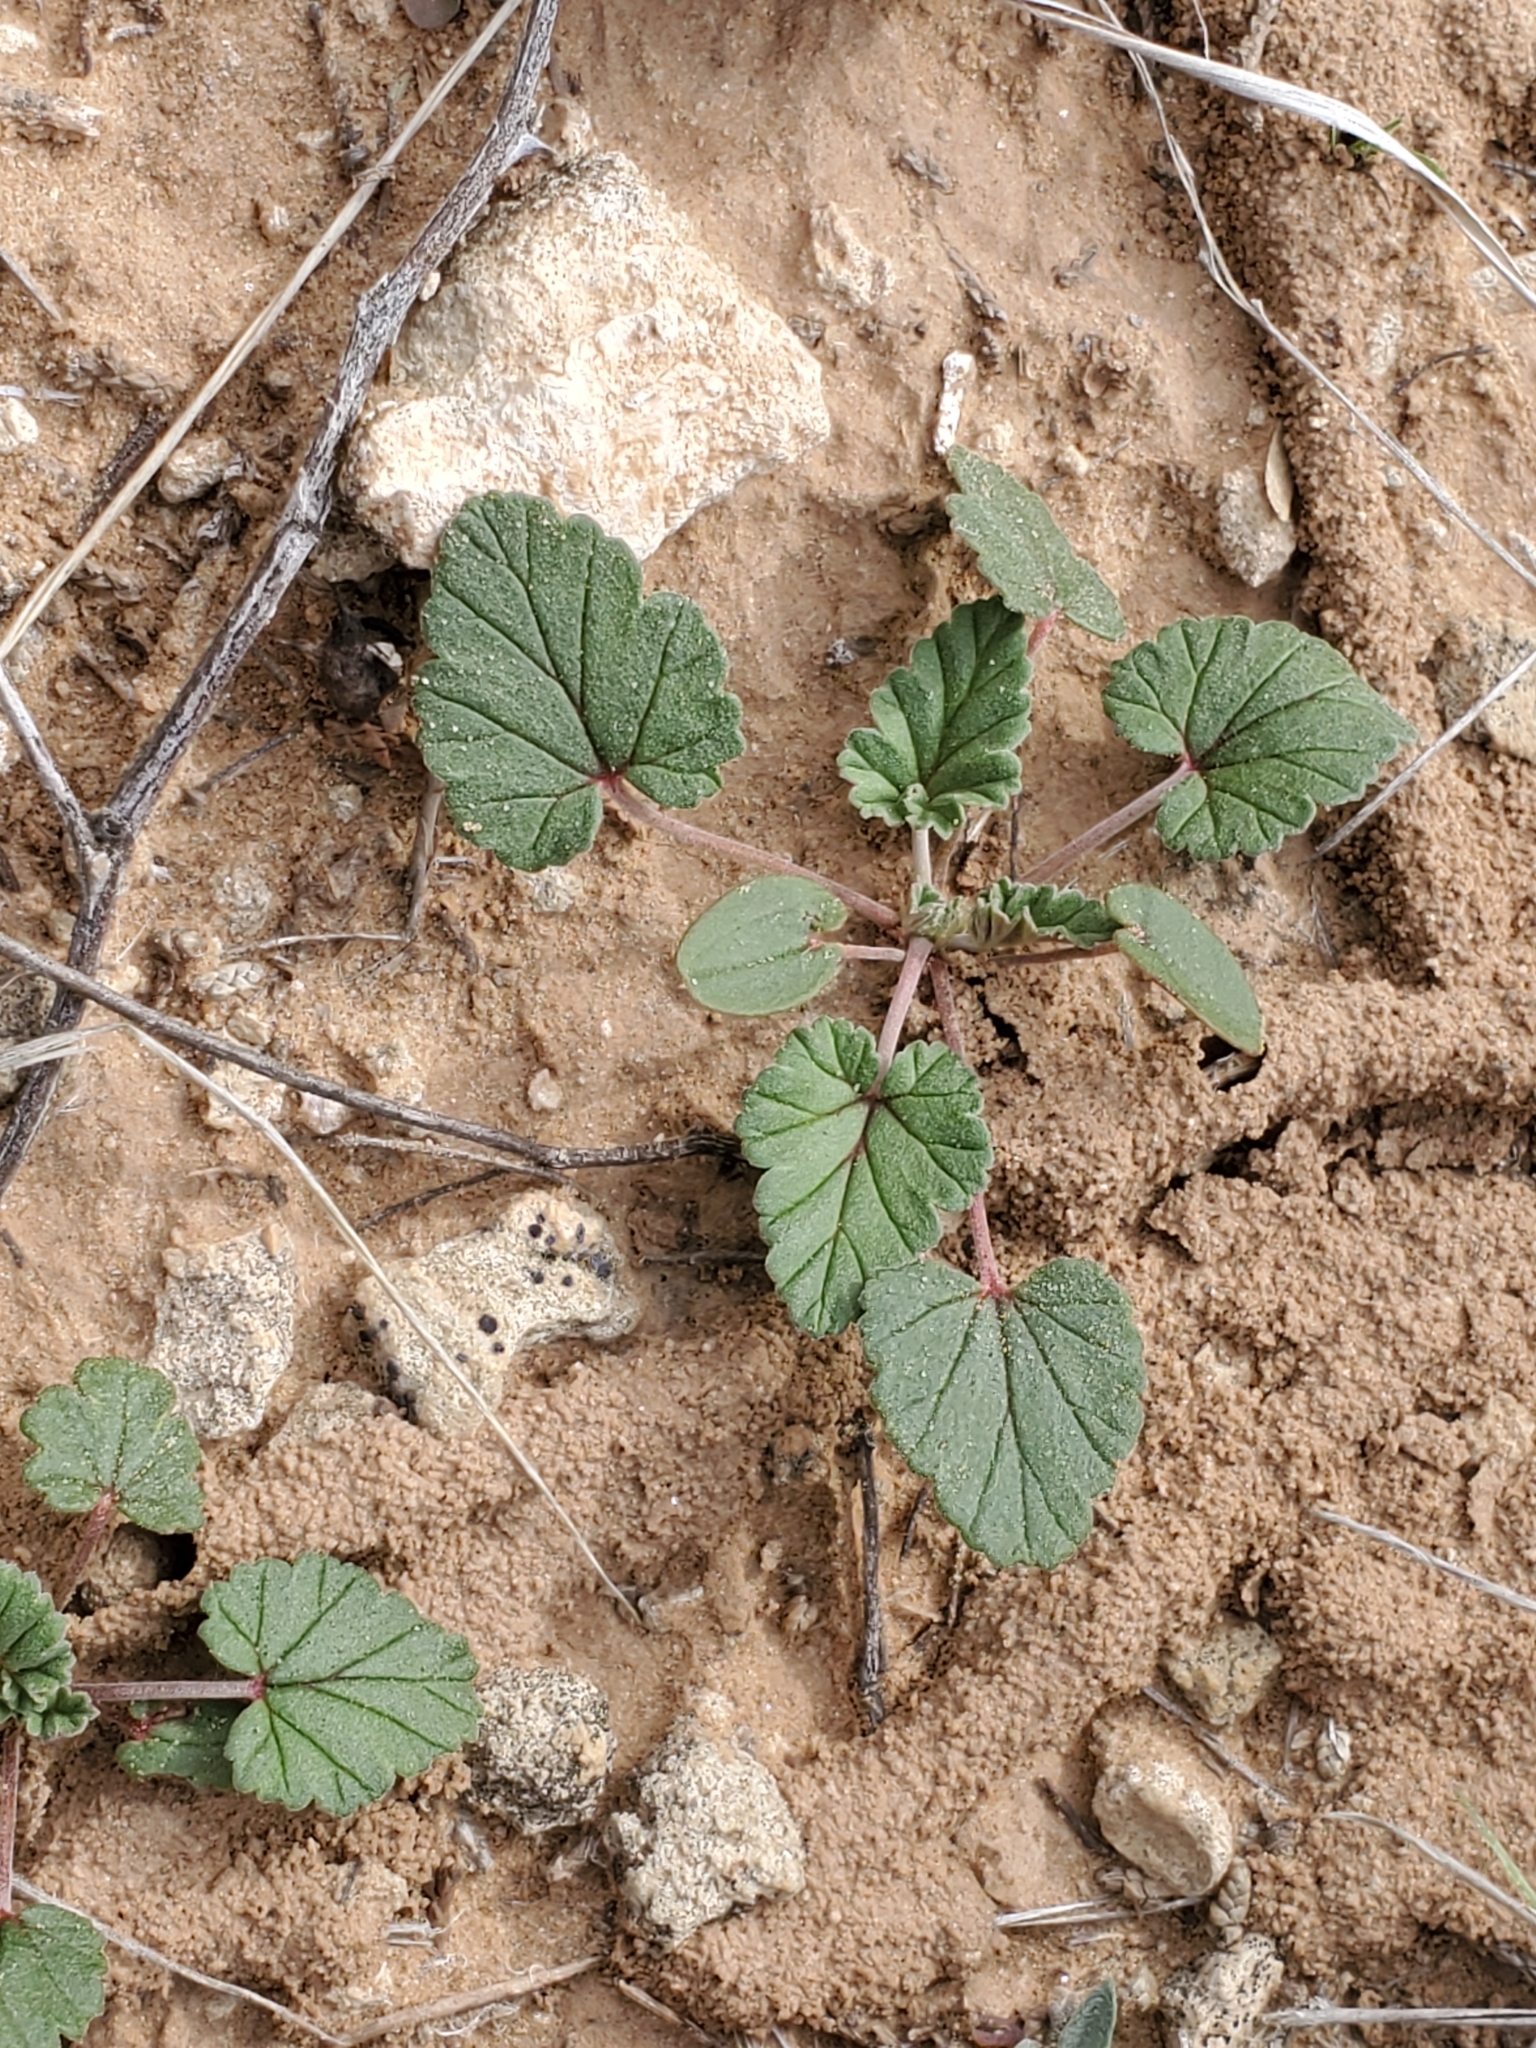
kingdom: Plantae
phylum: Tracheophyta
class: Magnoliopsida
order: Geraniales
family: Geraniaceae
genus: Erodium
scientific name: Erodium texanum
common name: Texas stork's-bill
